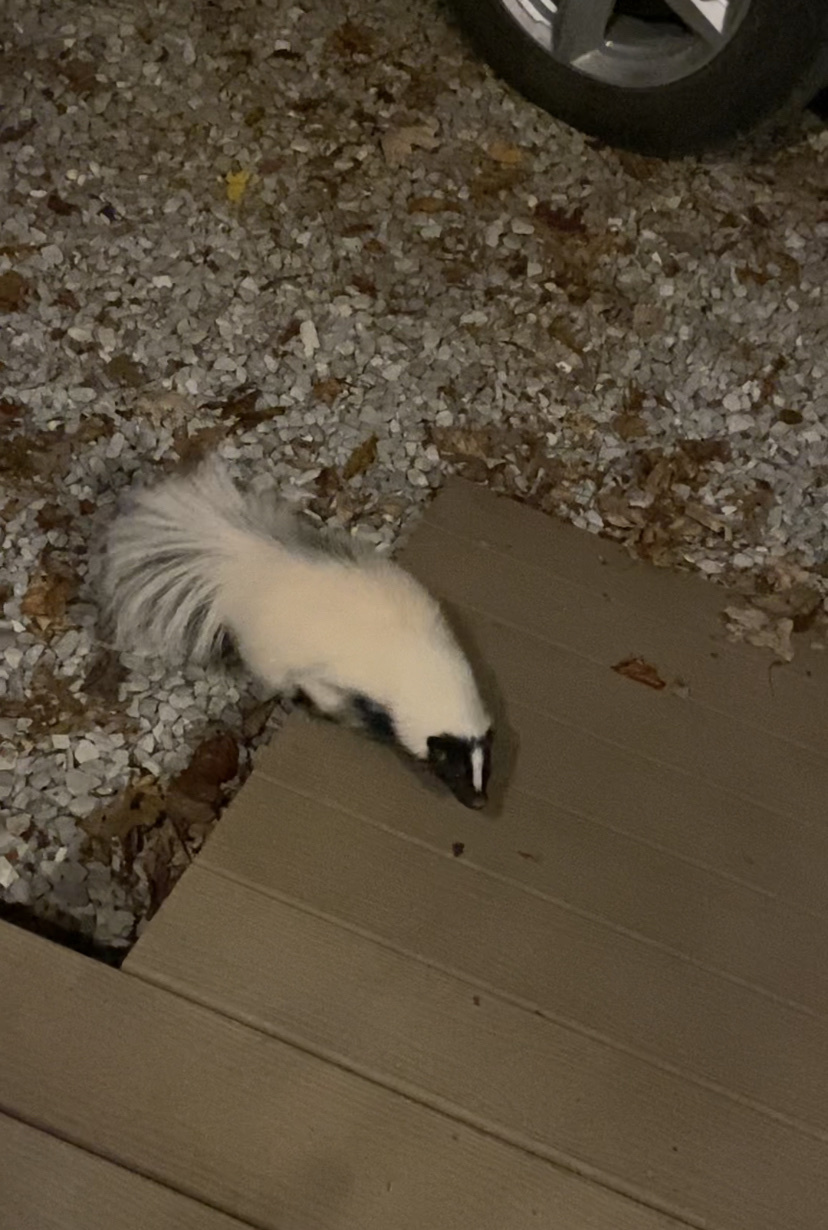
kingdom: Animalia
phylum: Chordata
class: Mammalia
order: Carnivora
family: Mephitidae
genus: Mephitis
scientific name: Mephitis mephitis
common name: Striped skunk
